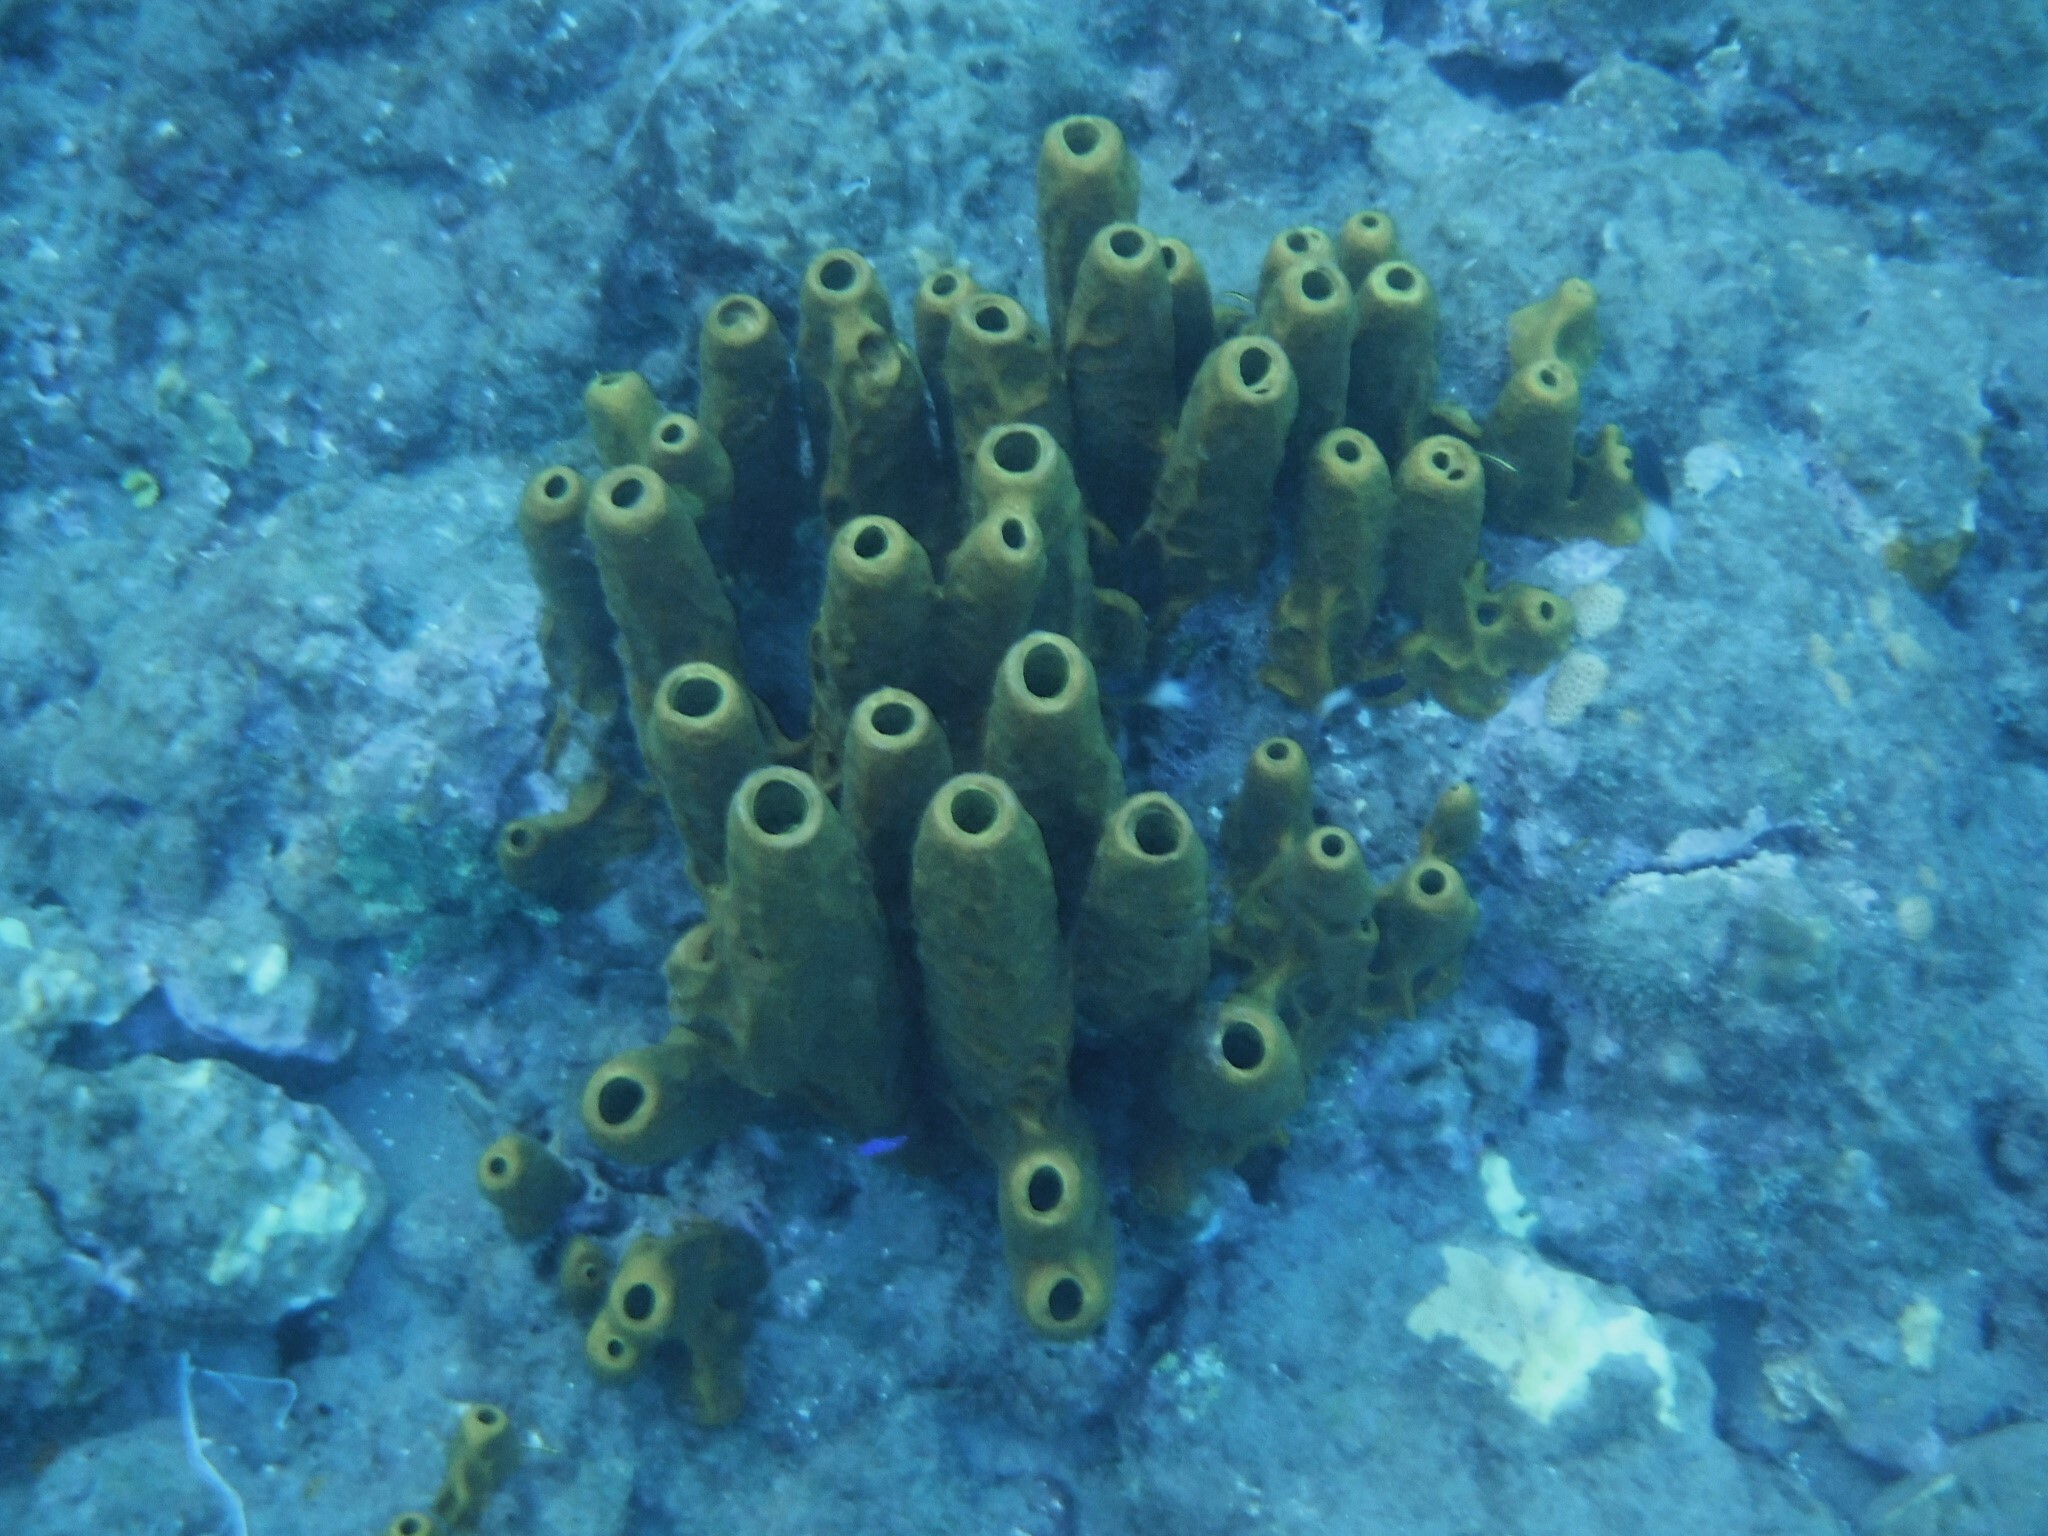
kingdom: Animalia
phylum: Porifera
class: Demospongiae
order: Verongiida
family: Aplysinidae
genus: Aplysina
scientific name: Aplysina fistularis
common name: Candle sponge
